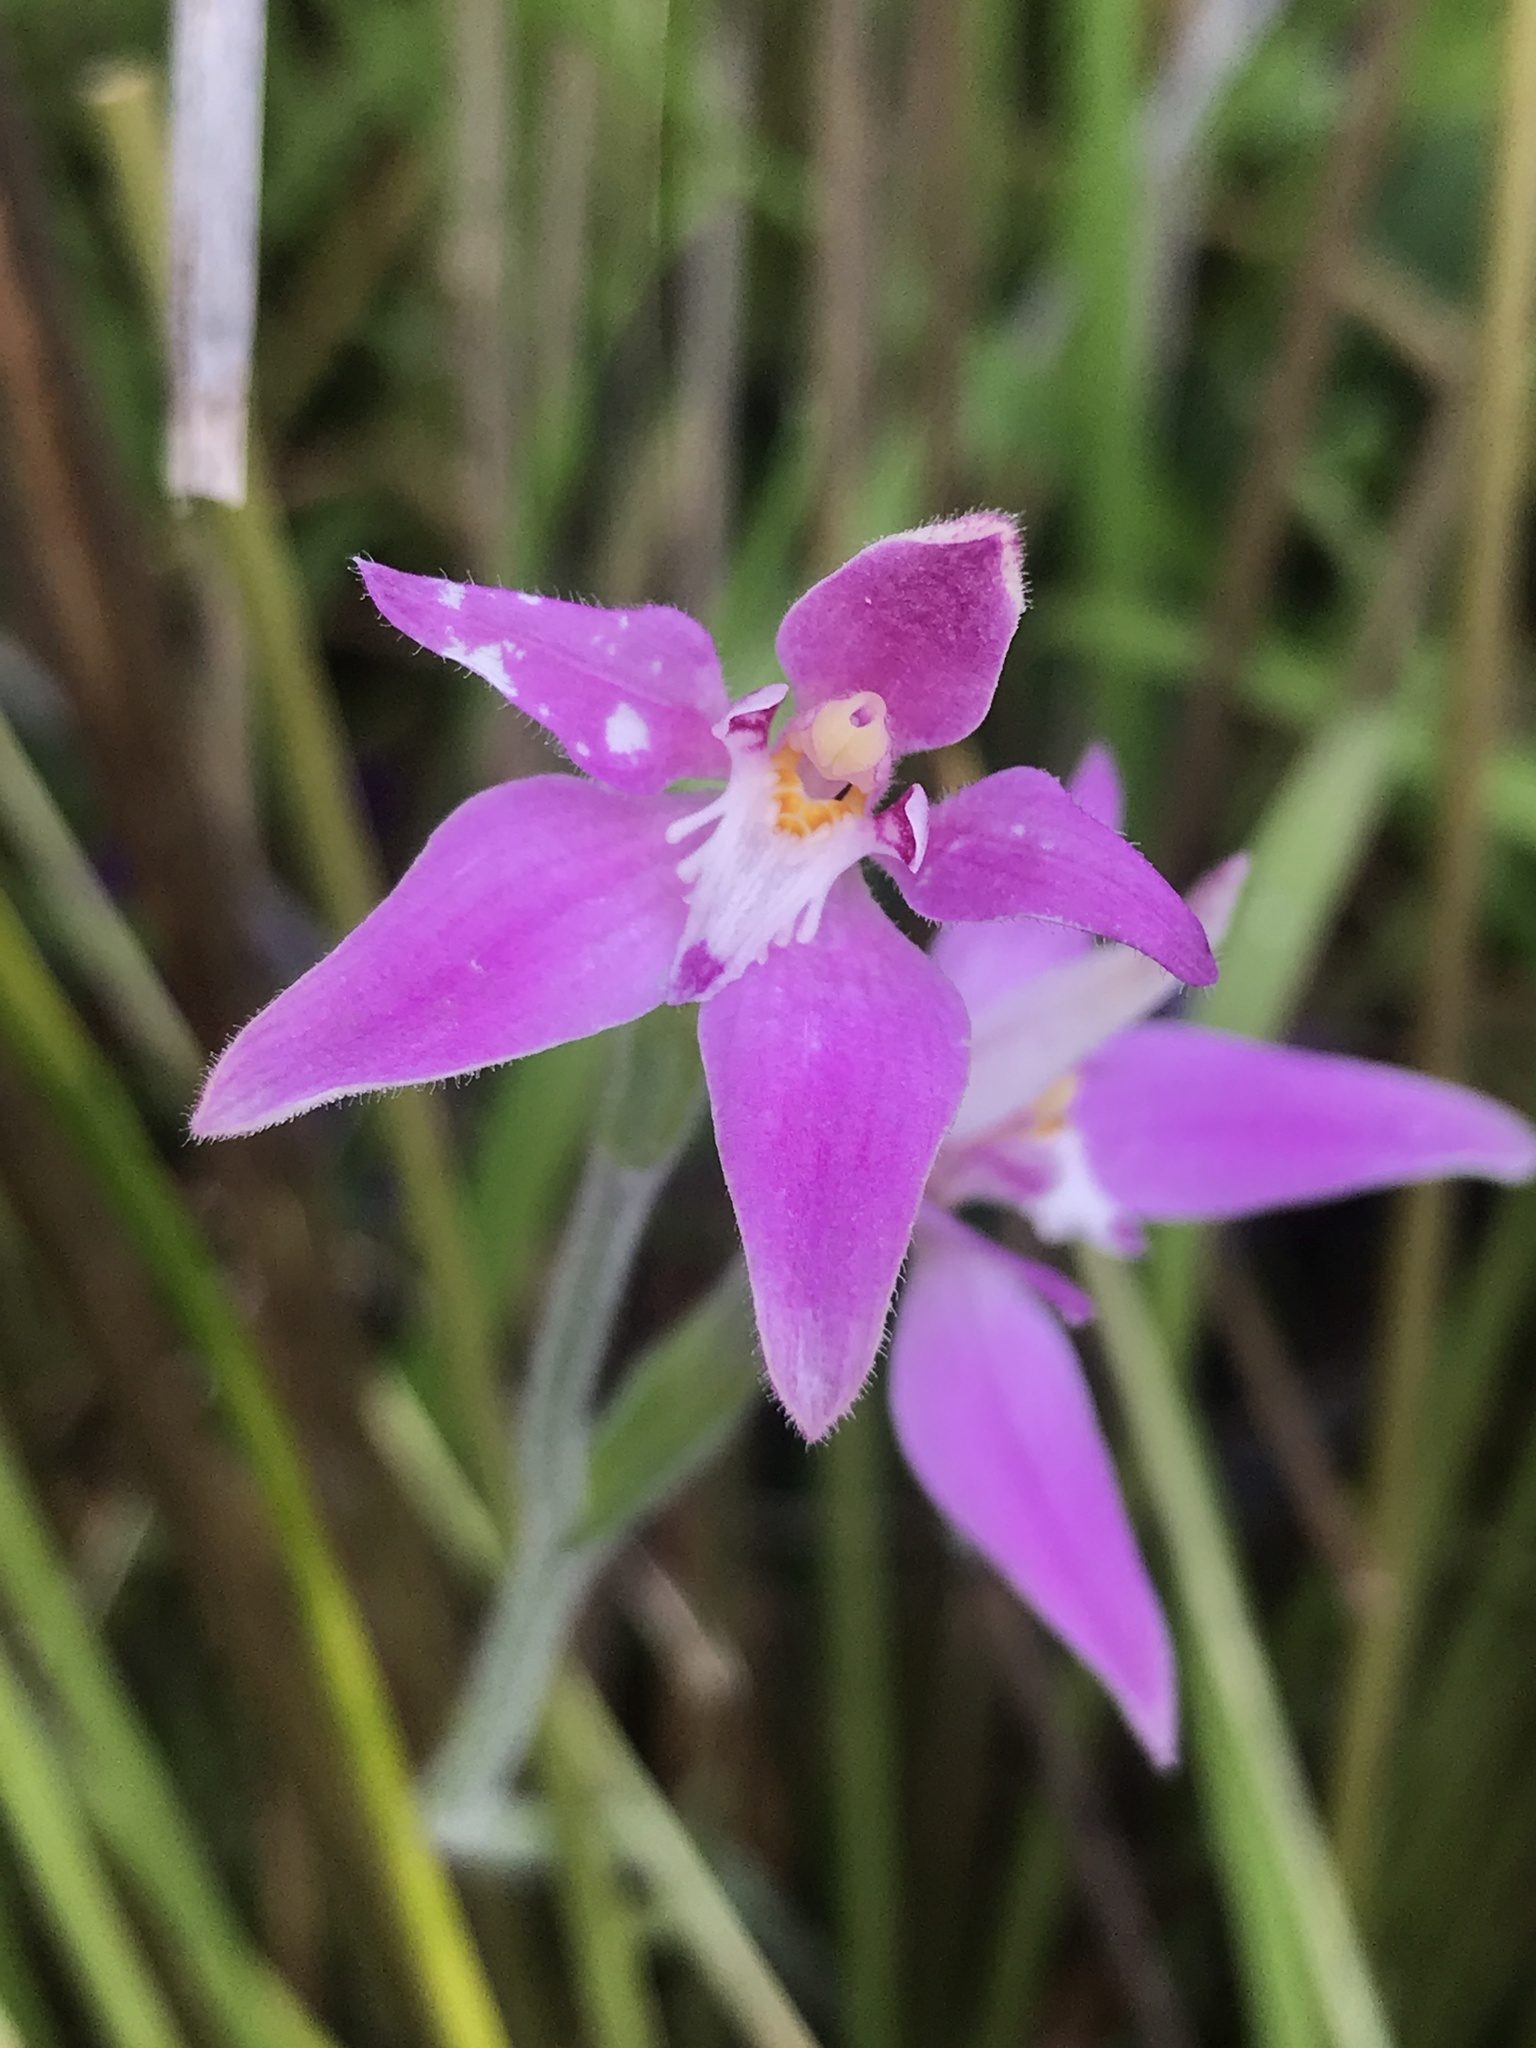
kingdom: Plantae
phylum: Tracheophyta
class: Liliopsida
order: Asparagales
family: Orchidaceae
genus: Caladenia
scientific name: Caladenia latifolia
